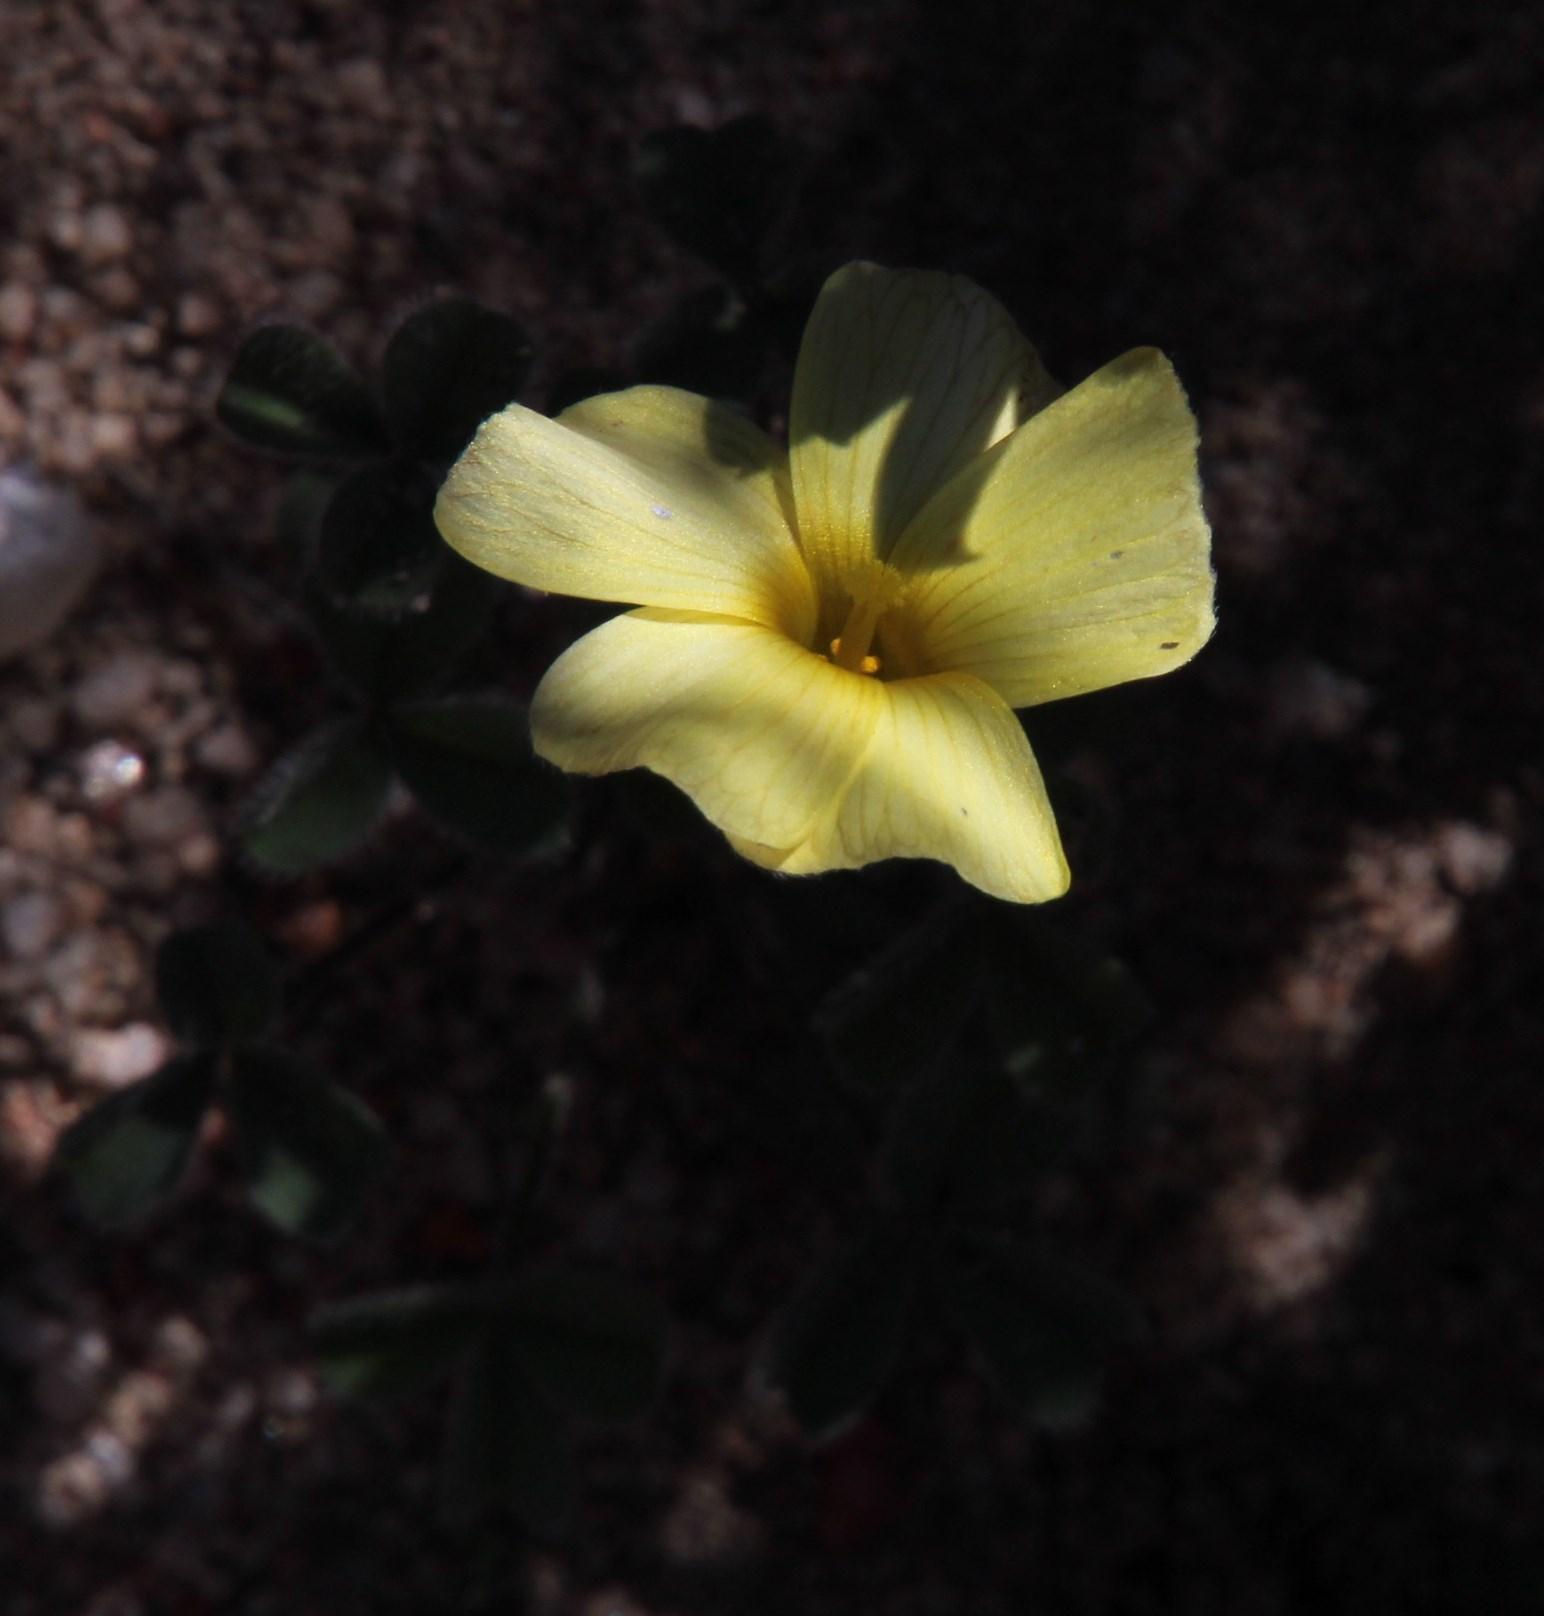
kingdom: Plantae
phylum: Tracheophyta
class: Magnoliopsida
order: Oxalidales
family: Oxalidaceae
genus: Oxalis
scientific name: Oxalis obtusa
